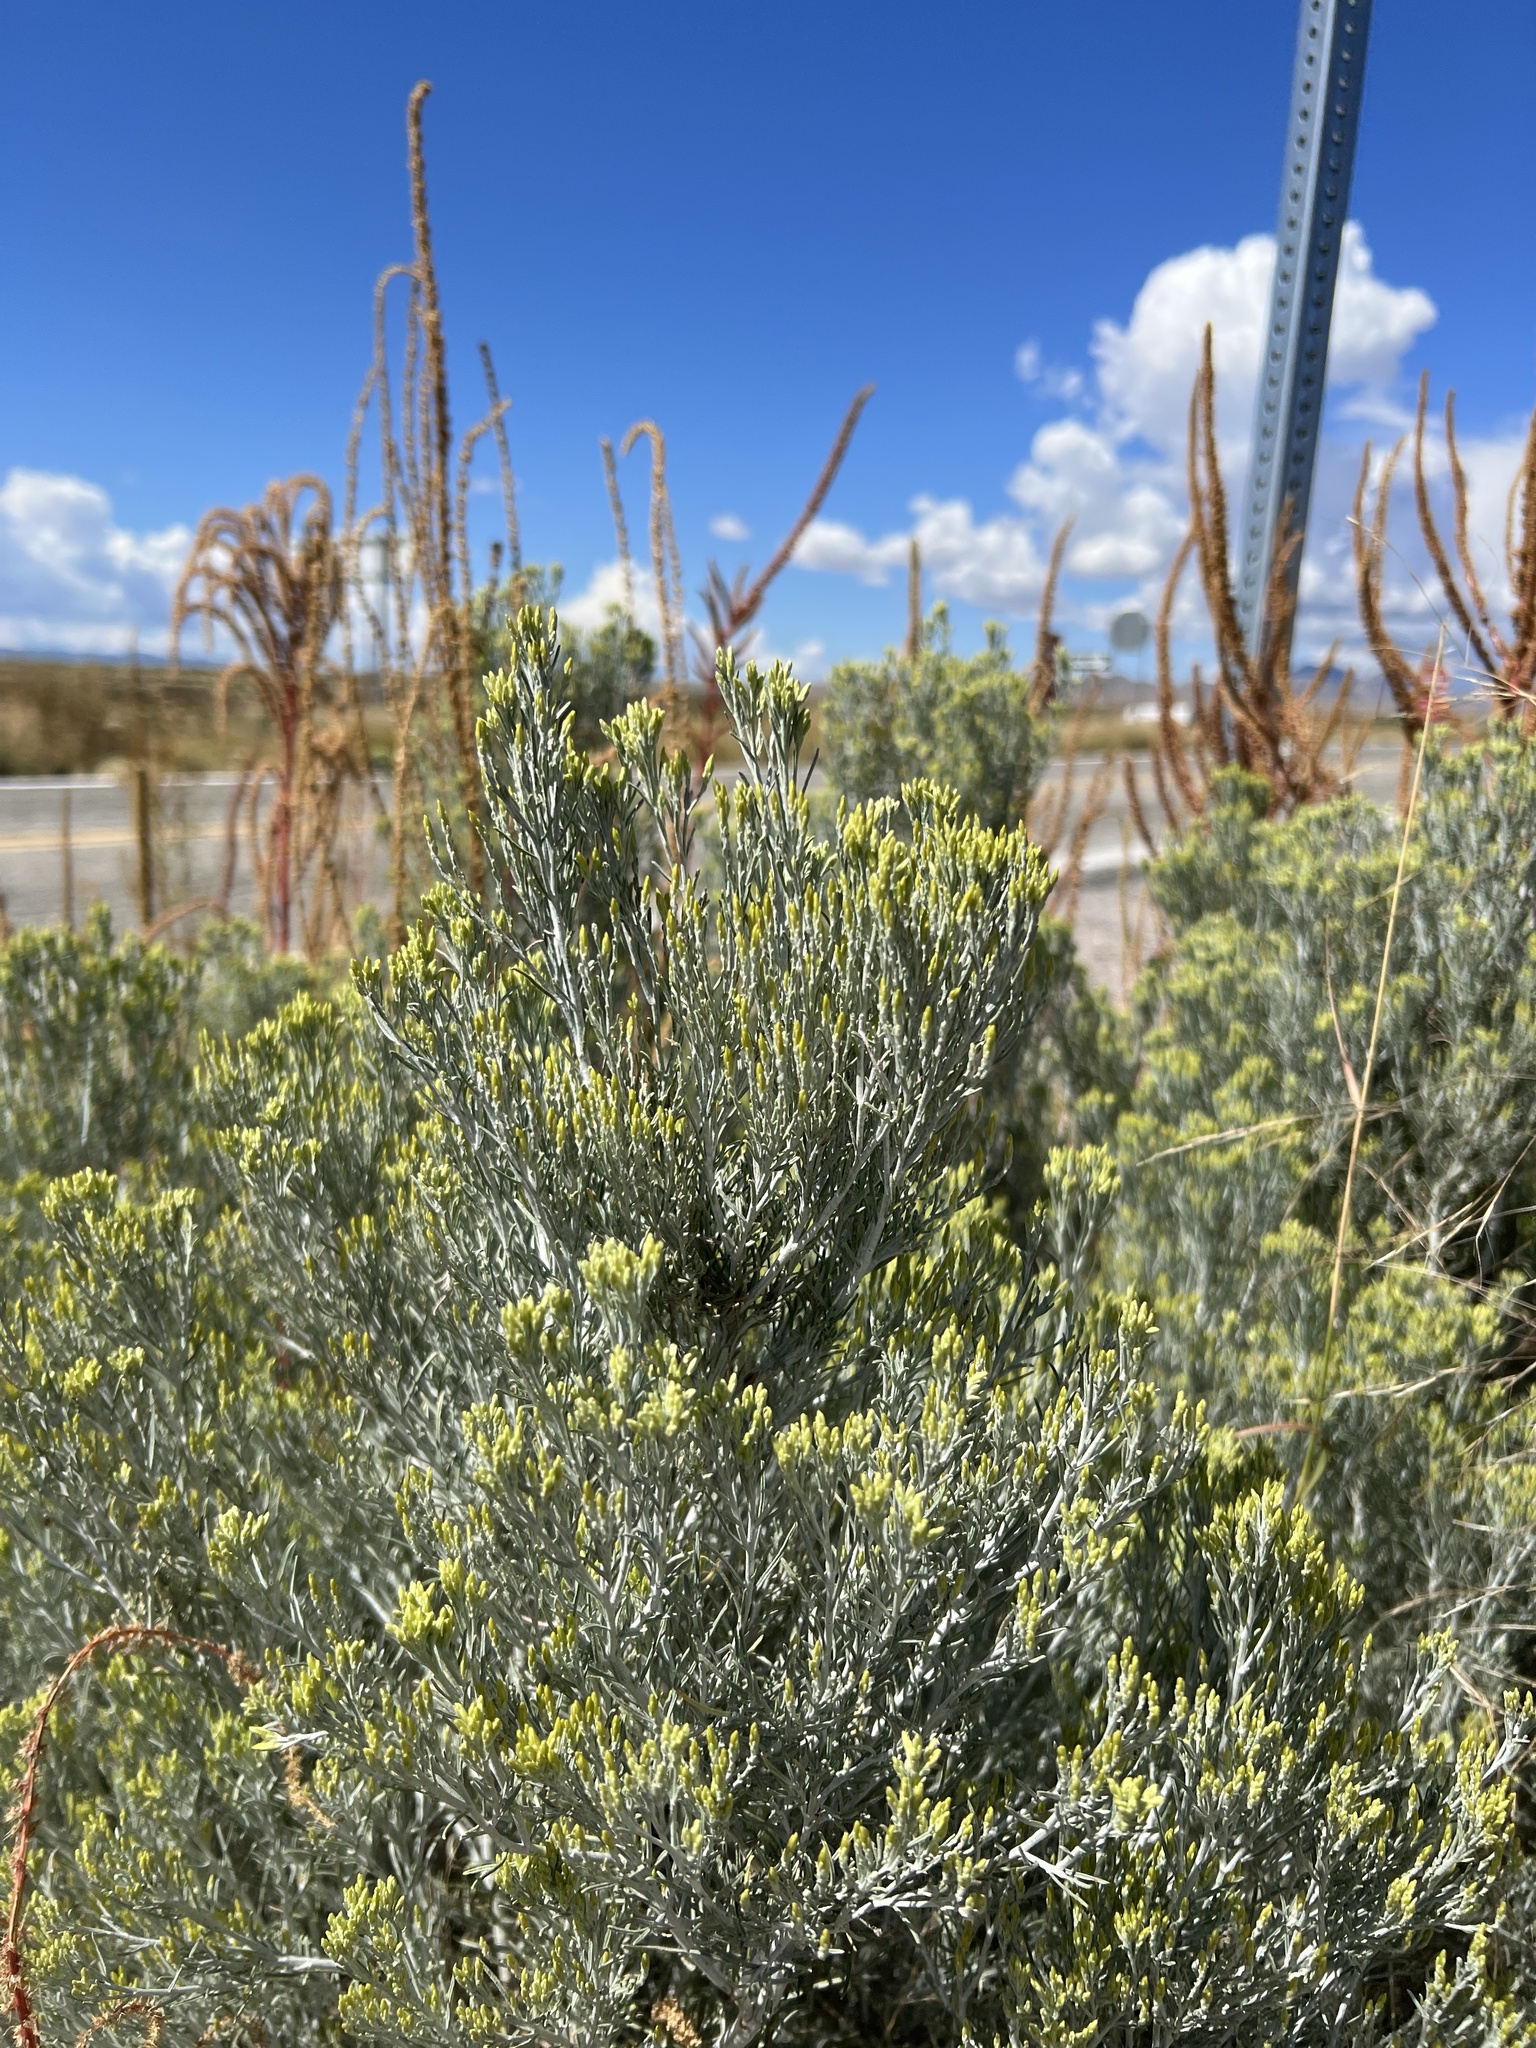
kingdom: Plantae
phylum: Tracheophyta
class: Magnoliopsida
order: Asterales
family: Asteraceae
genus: Ericameria
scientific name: Ericameria nauseosa
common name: Rubber rabbitbrush
